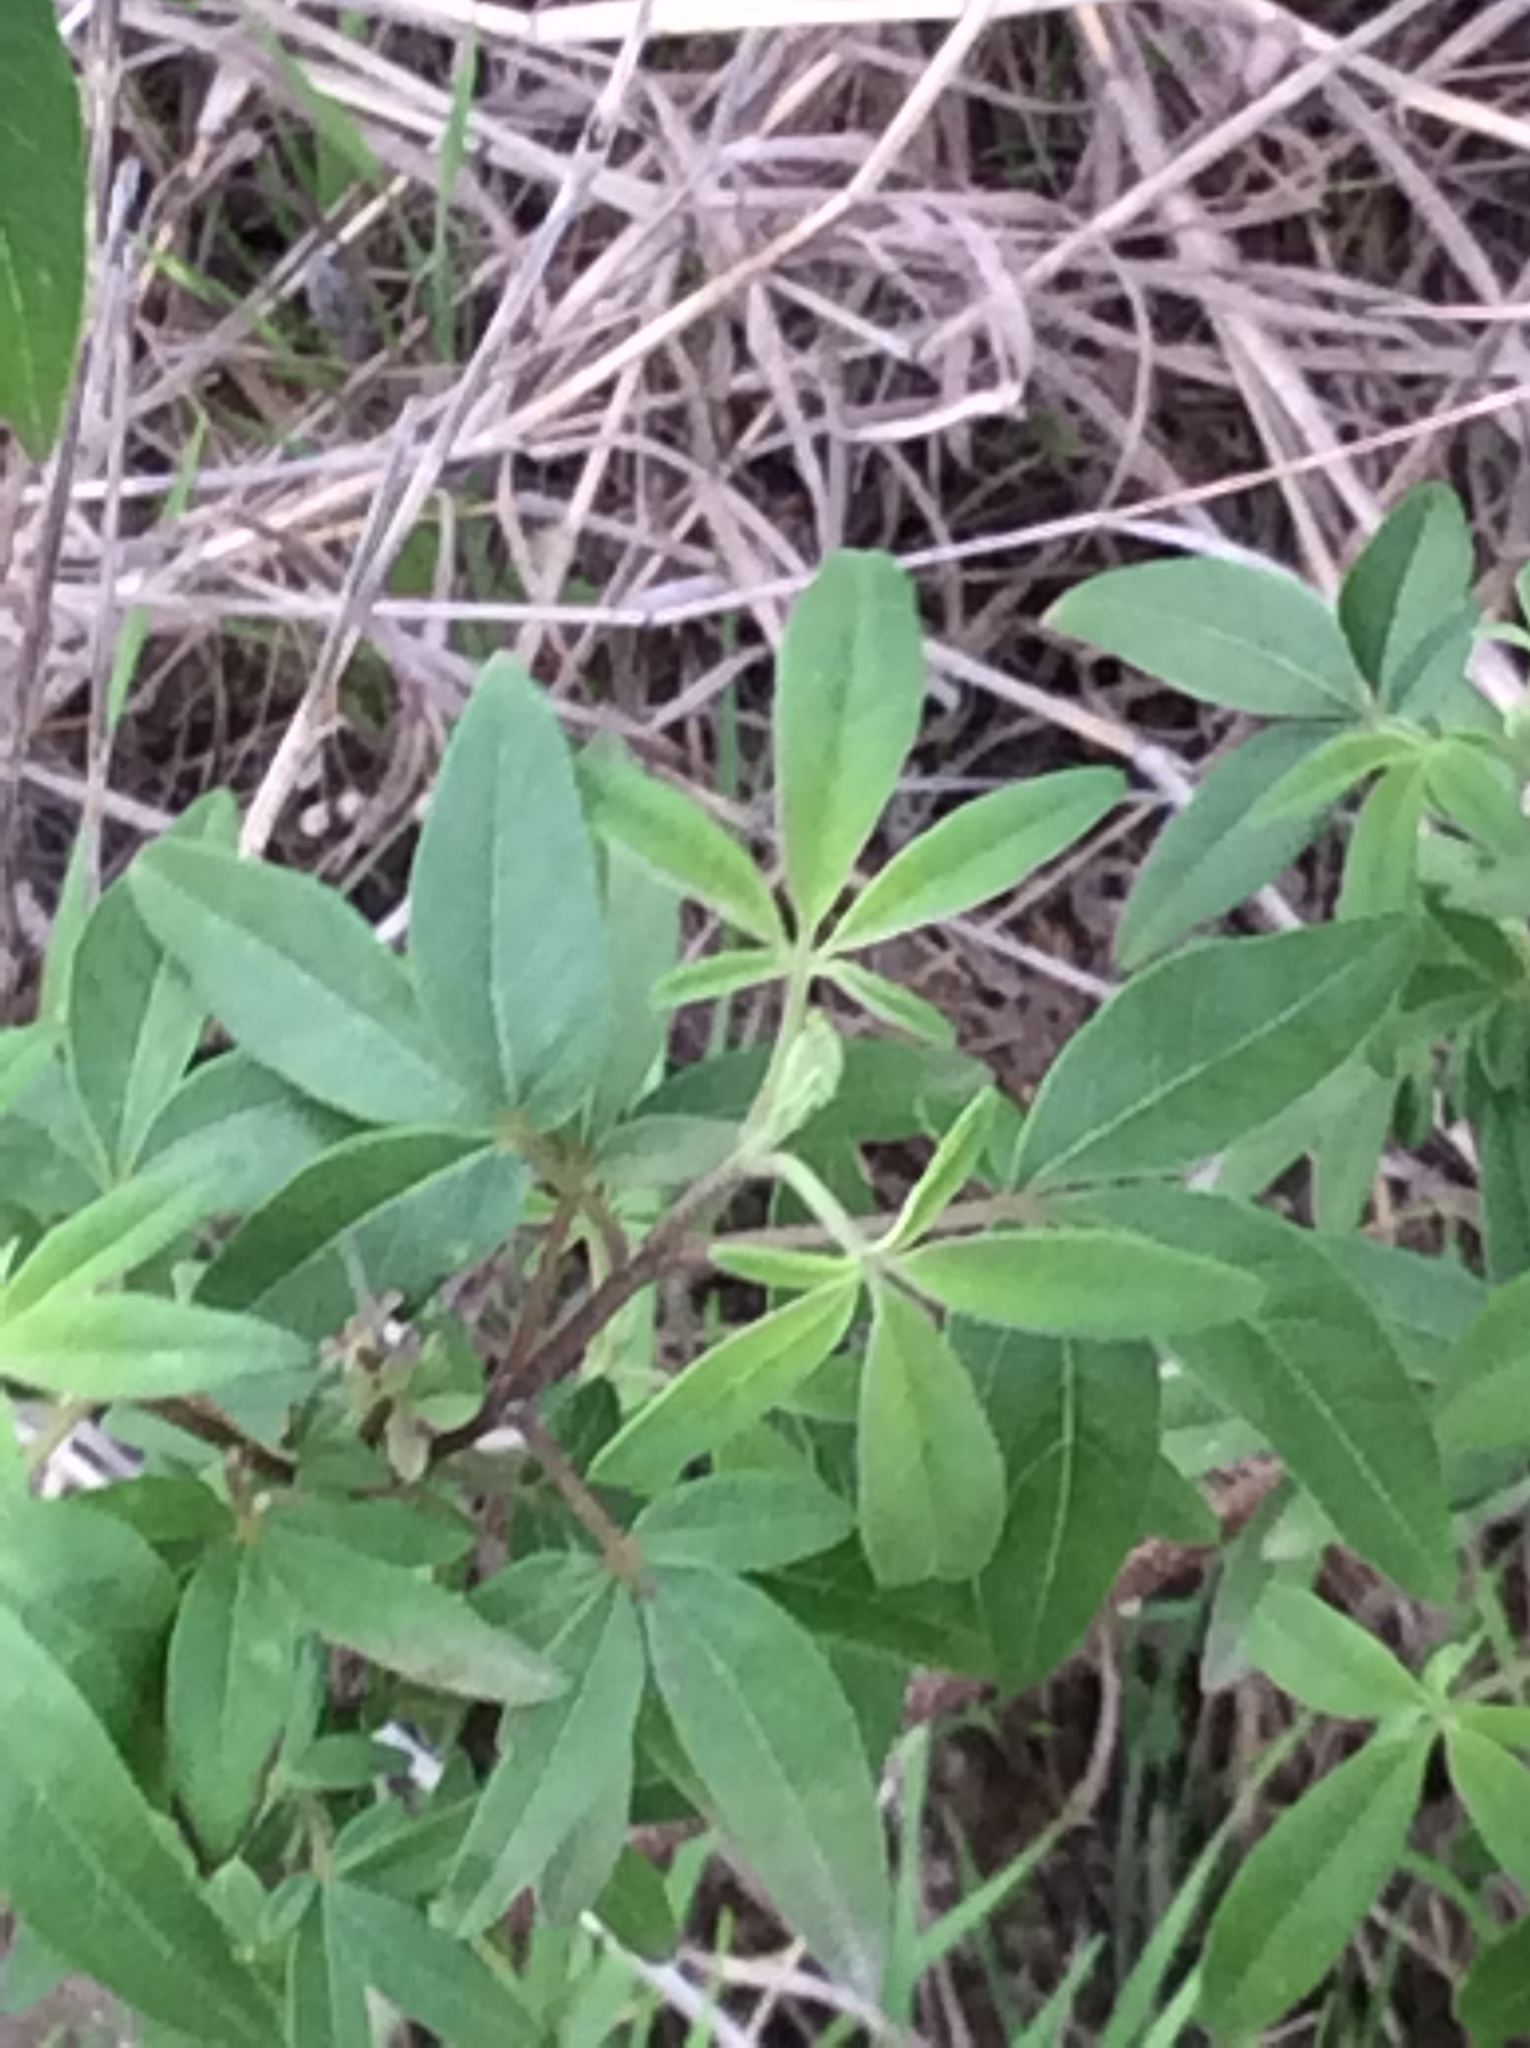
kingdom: Plantae
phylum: Tracheophyta
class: Magnoliopsida
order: Lamiales
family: Lamiaceae
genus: Vitex
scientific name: Vitex agnus-castus
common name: Chasteberry
